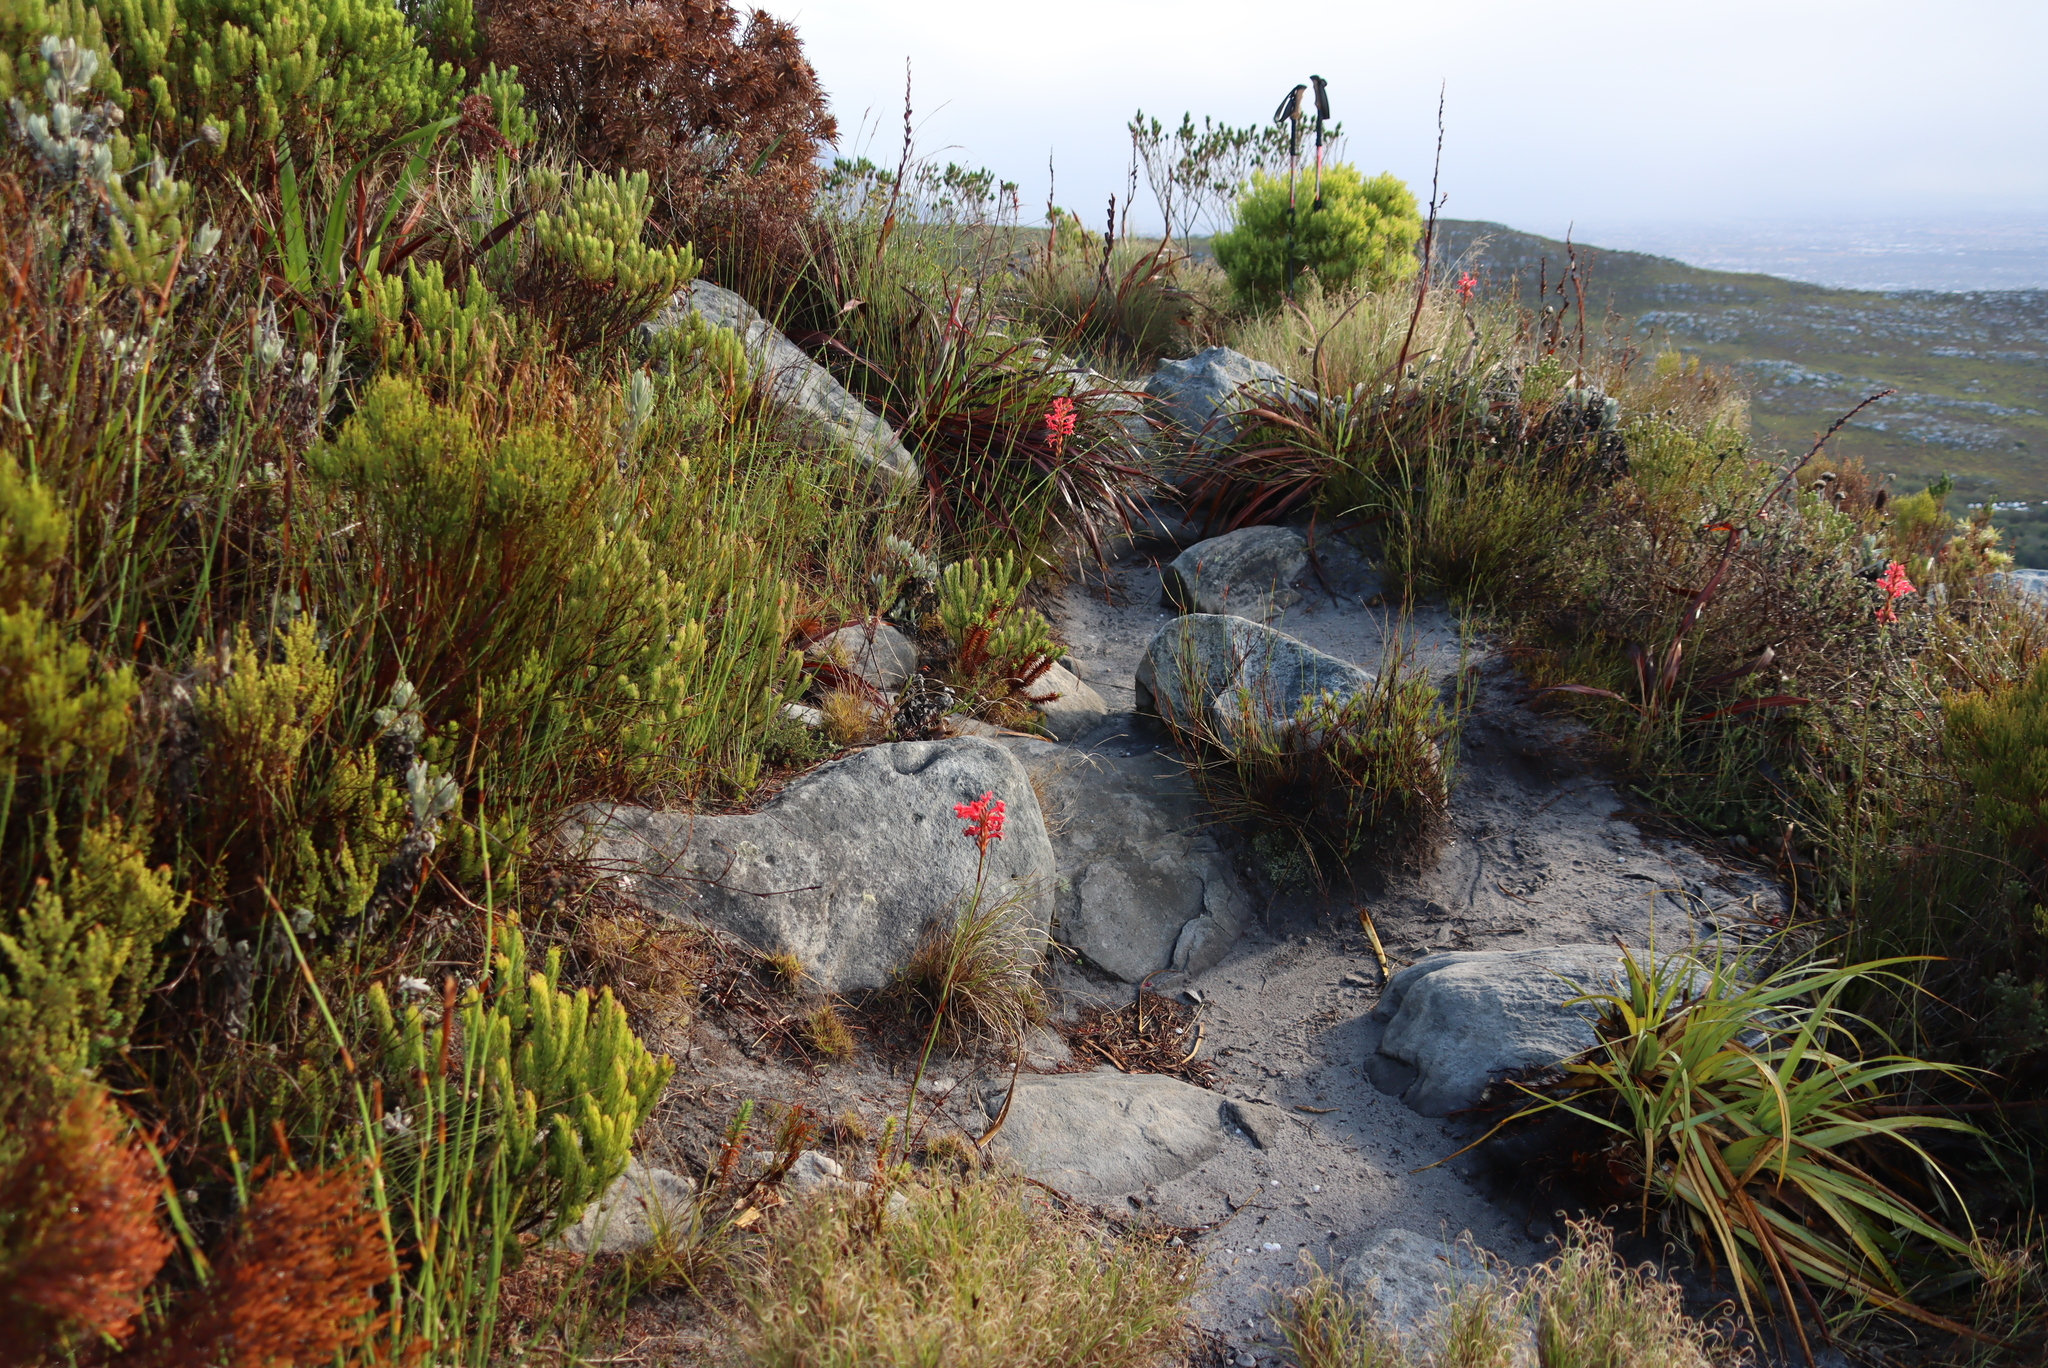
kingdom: Plantae
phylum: Tracheophyta
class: Liliopsida
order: Asparagales
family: Iridaceae
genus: Tritoniopsis
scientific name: Tritoniopsis triticea
